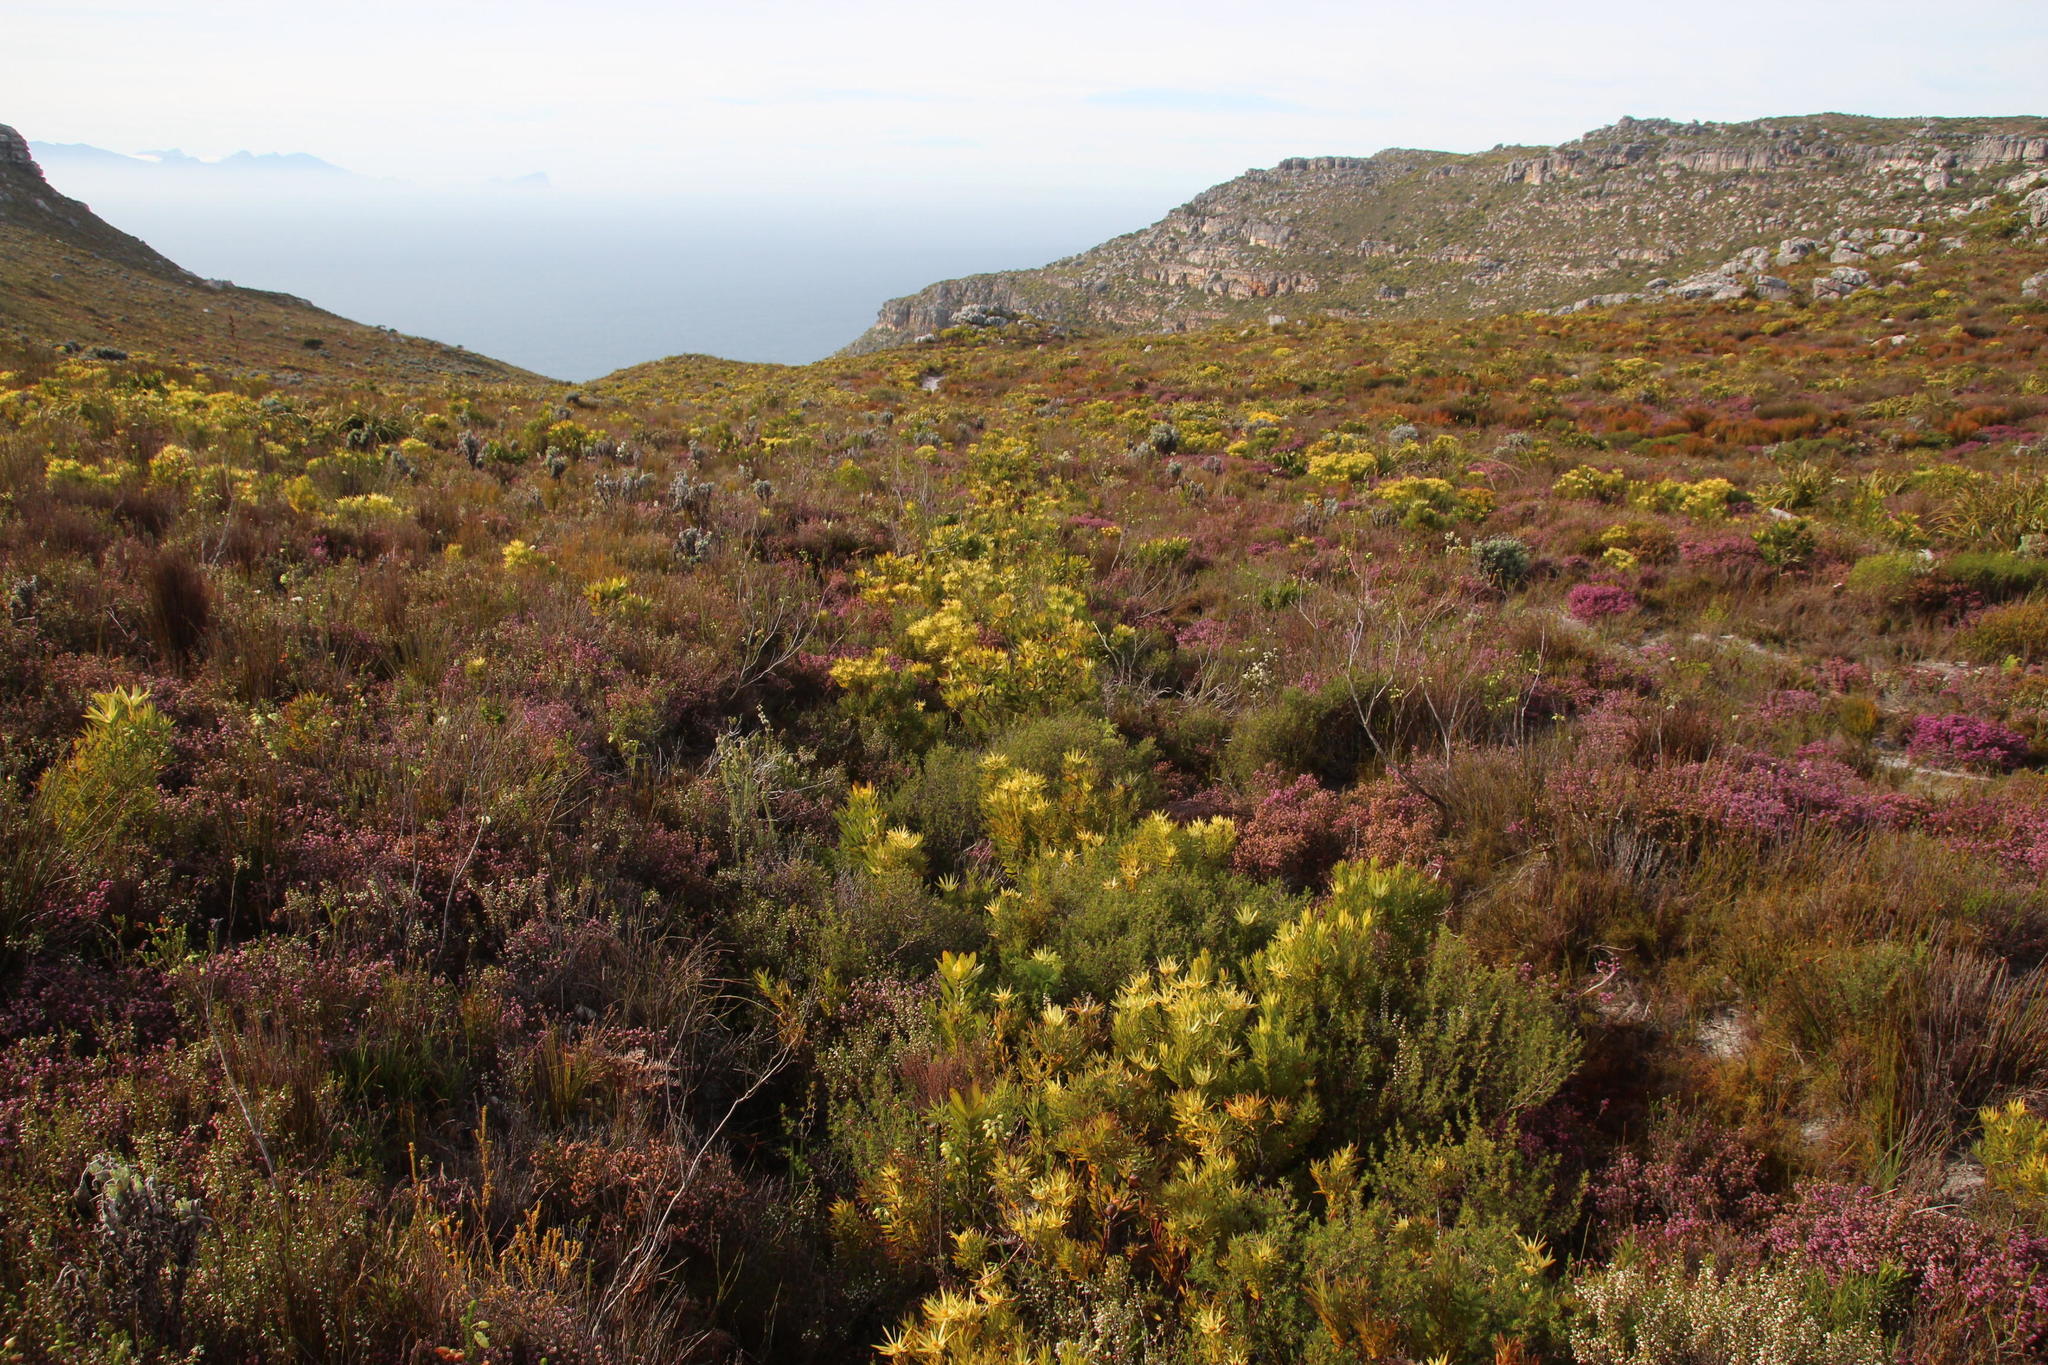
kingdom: Plantae
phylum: Tracheophyta
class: Magnoliopsida
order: Proteales
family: Proteaceae
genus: Leucadendron
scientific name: Leucadendron xanthoconus
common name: Sickle-leaf conebush
